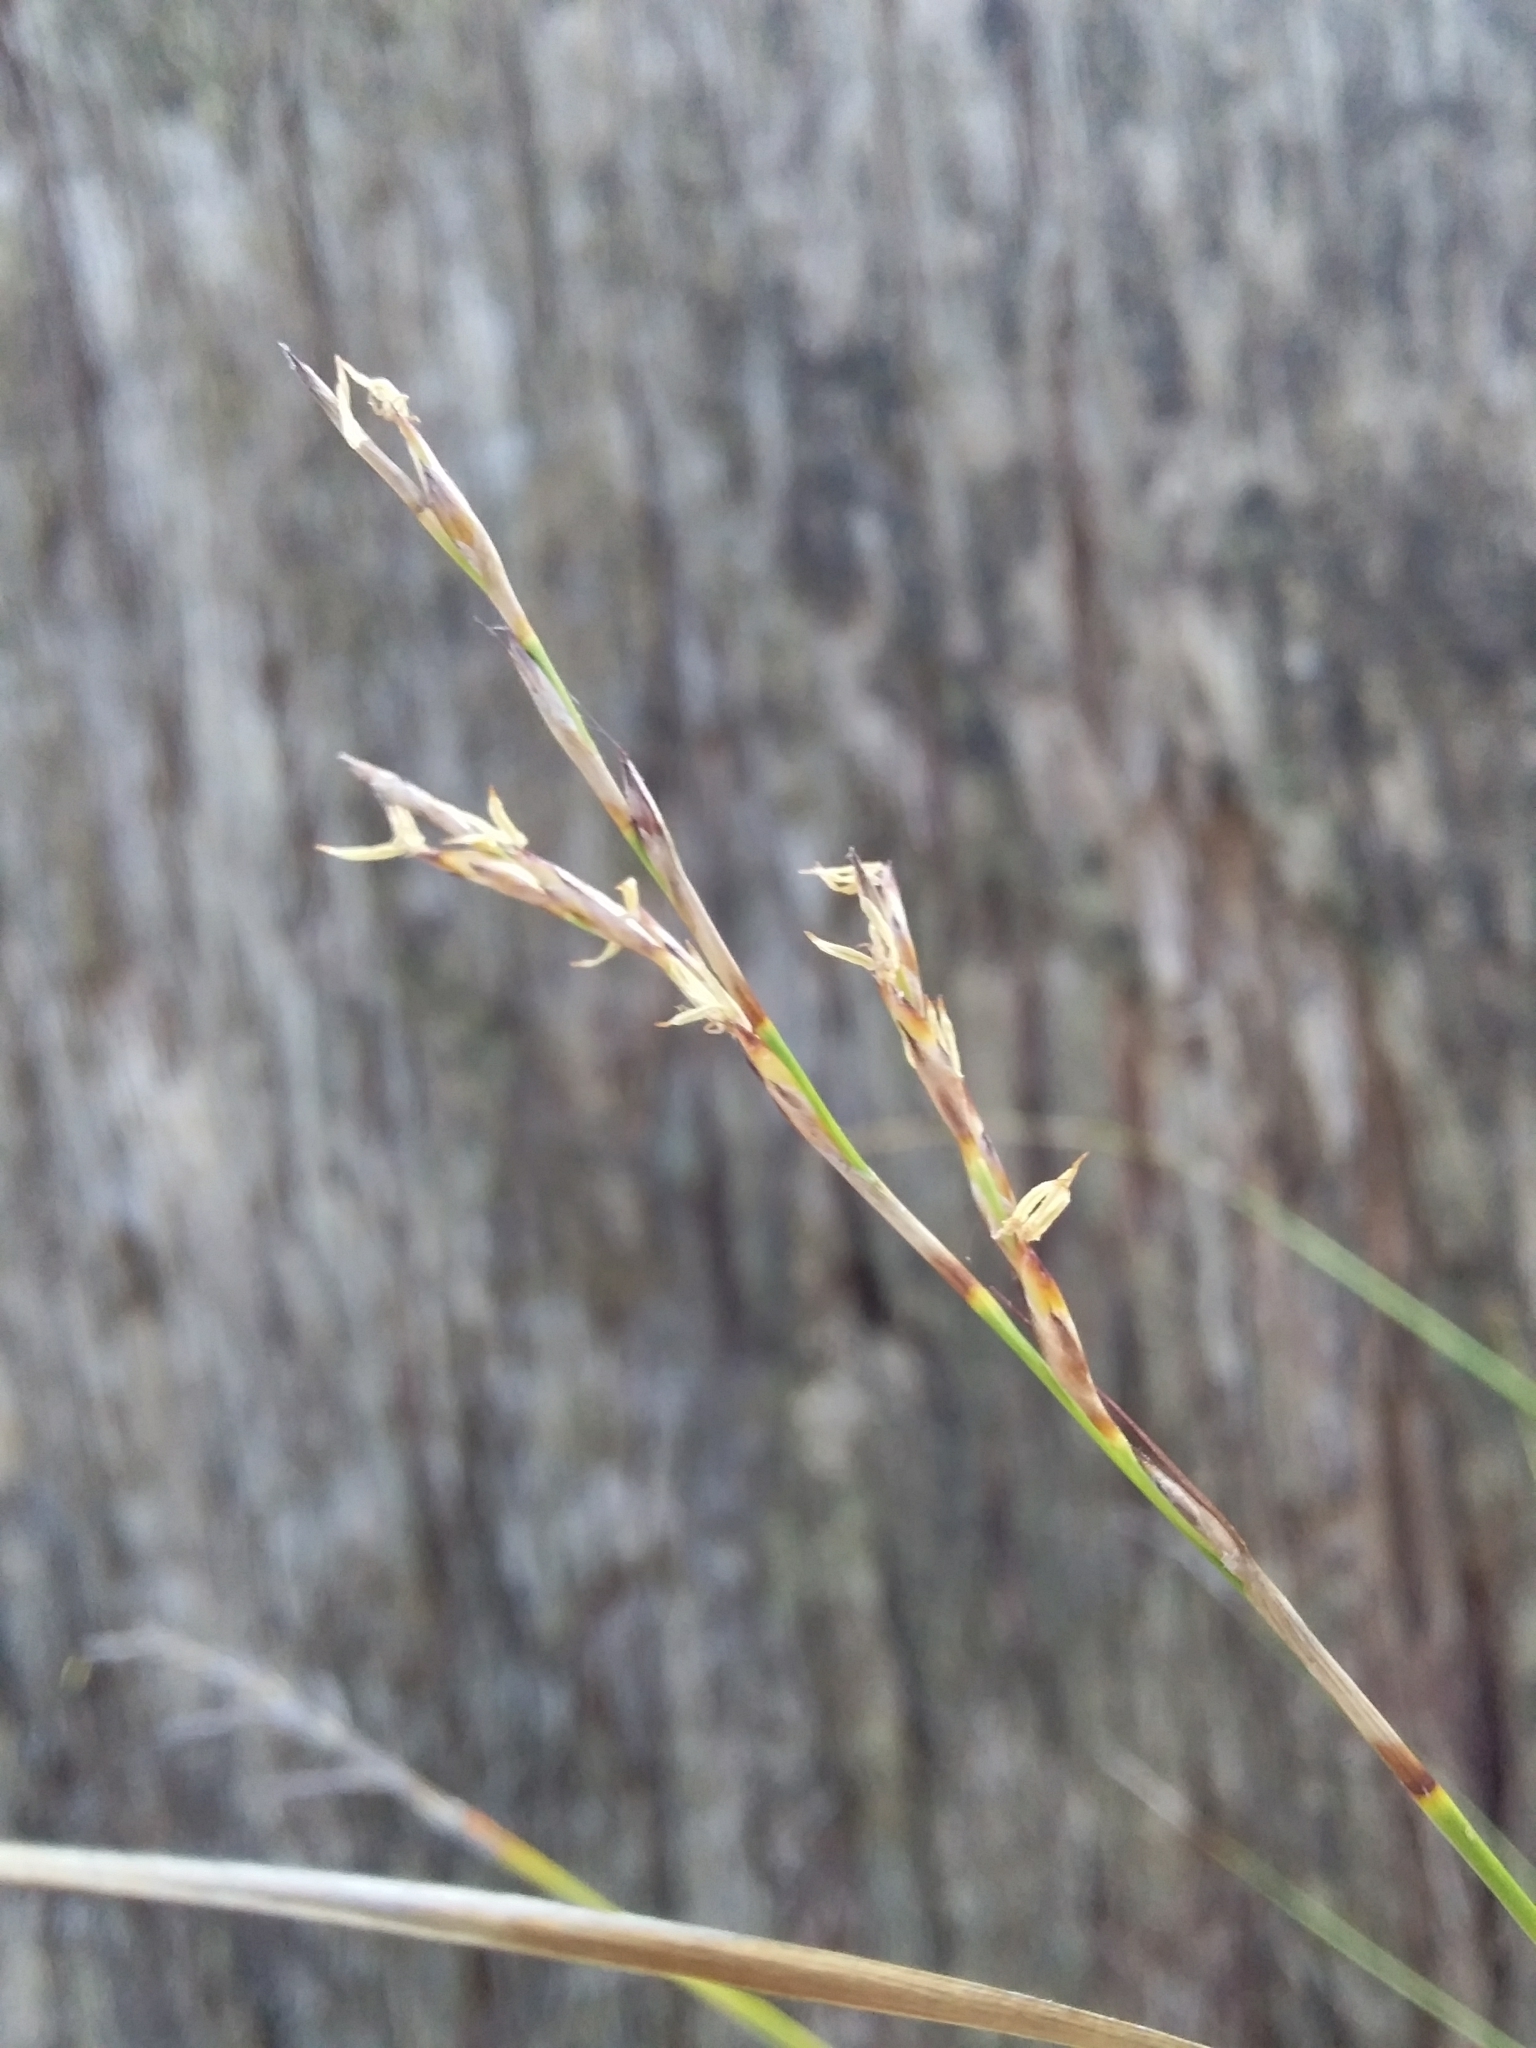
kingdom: Plantae
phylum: Tracheophyta
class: Liliopsida
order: Poales
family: Cyperaceae
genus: Lepidosperma
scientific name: Lepidosperma semiteres
